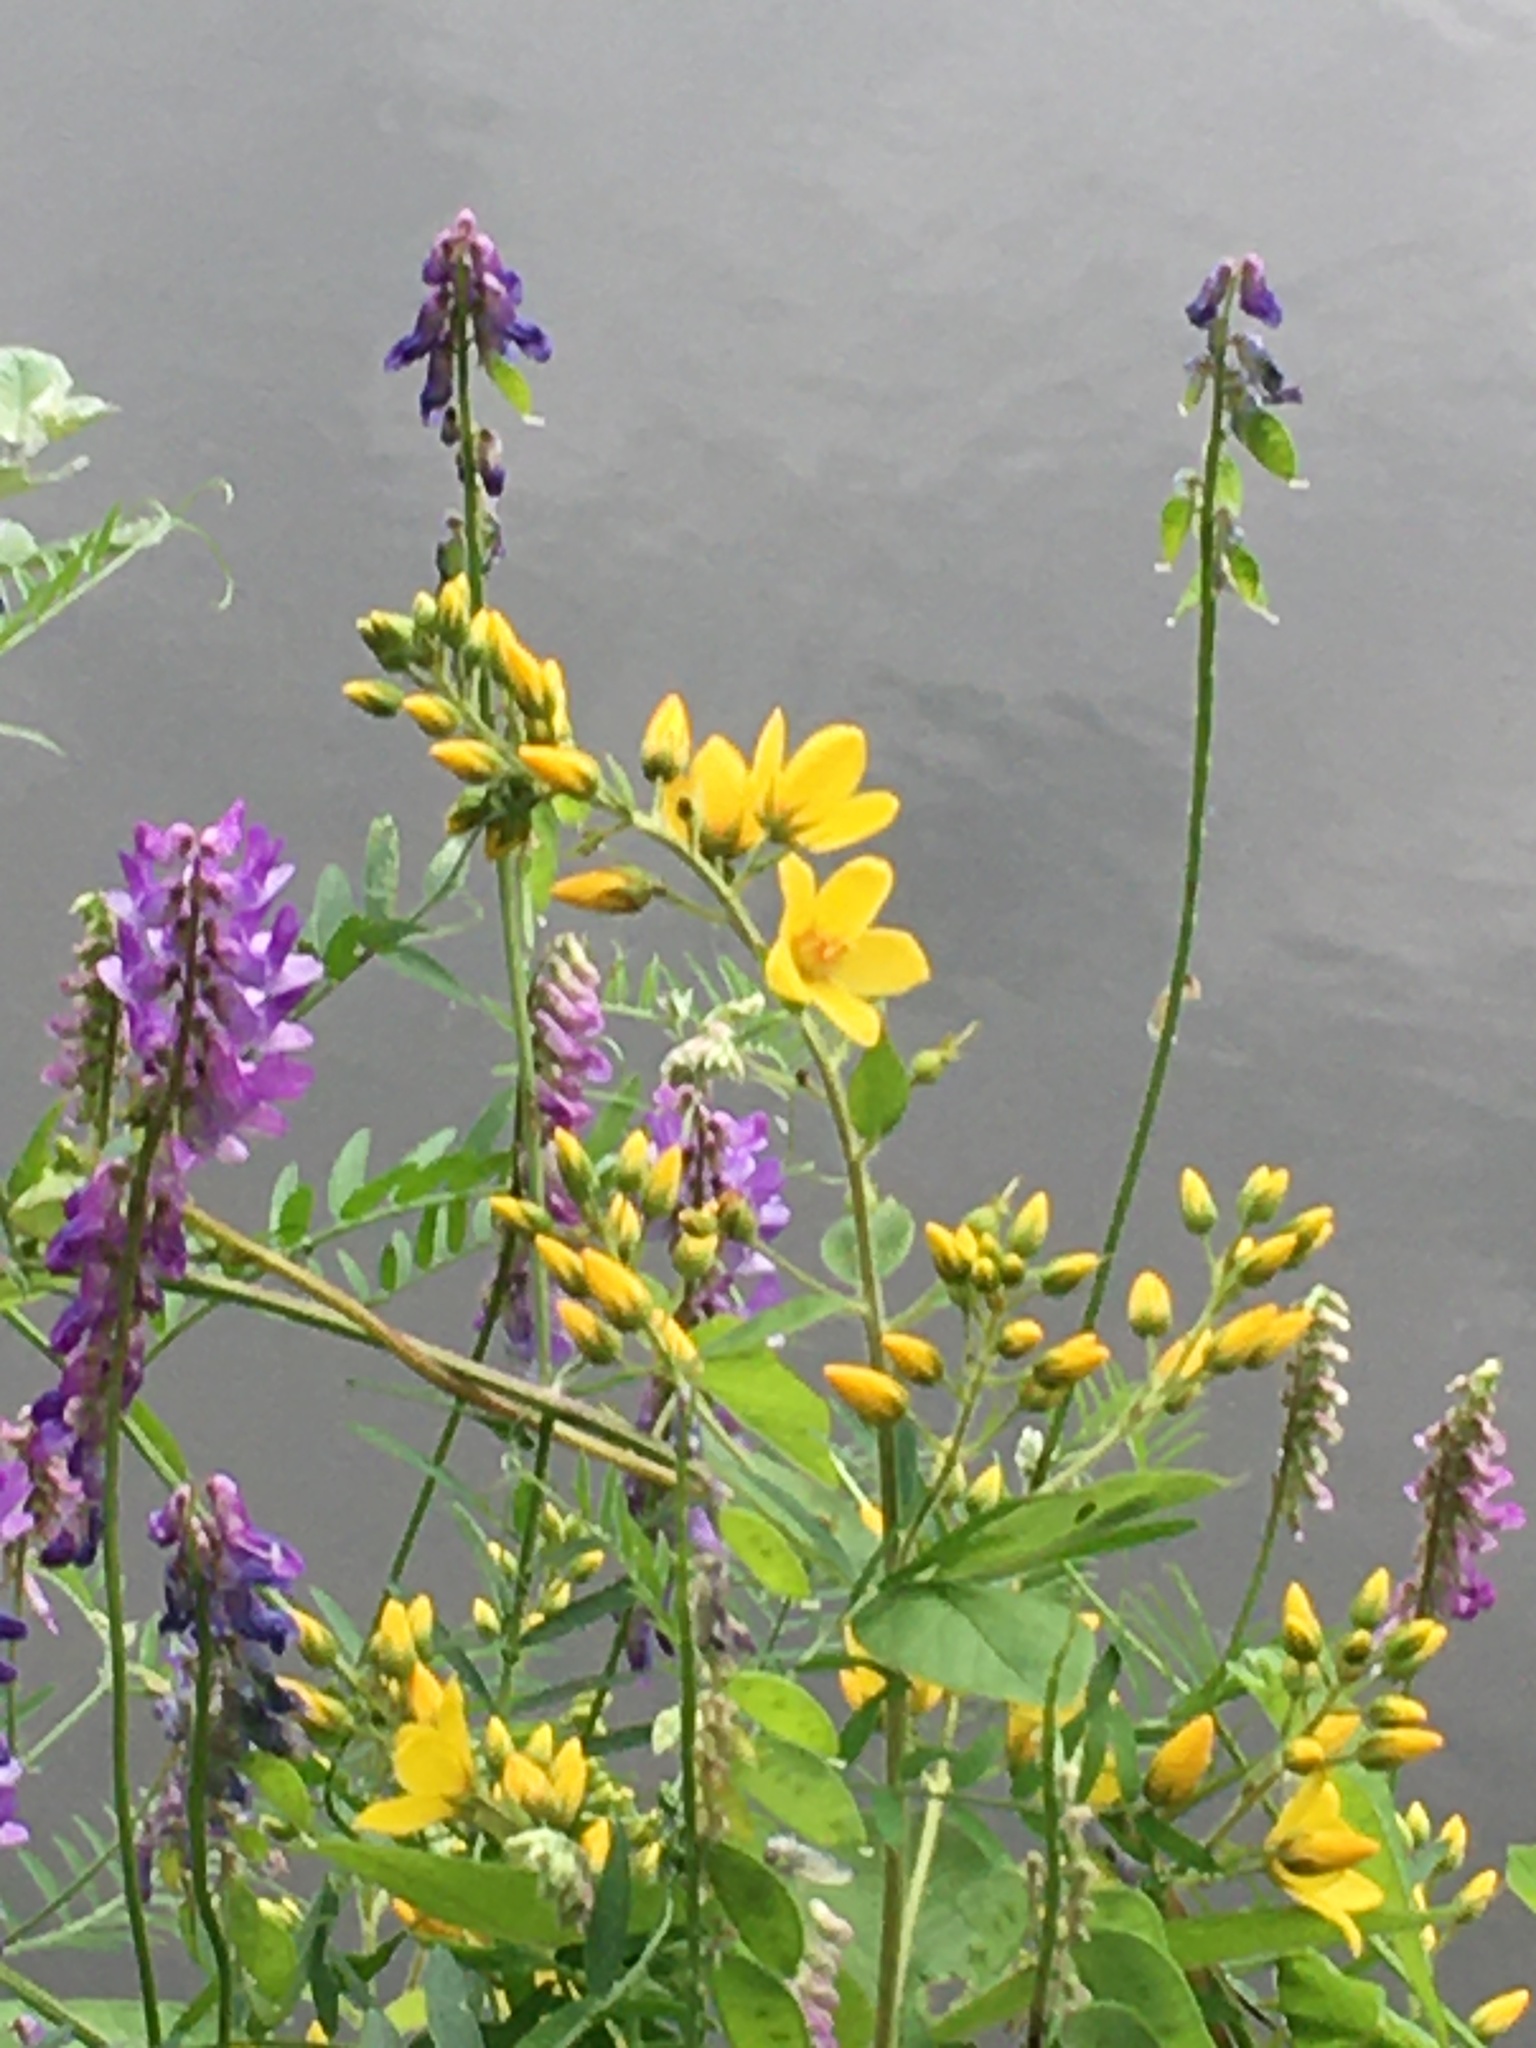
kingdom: Plantae
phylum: Tracheophyta
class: Magnoliopsida
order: Ericales
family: Primulaceae
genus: Lysimachia
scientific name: Lysimachia vulgaris
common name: Yellow loosestrife
